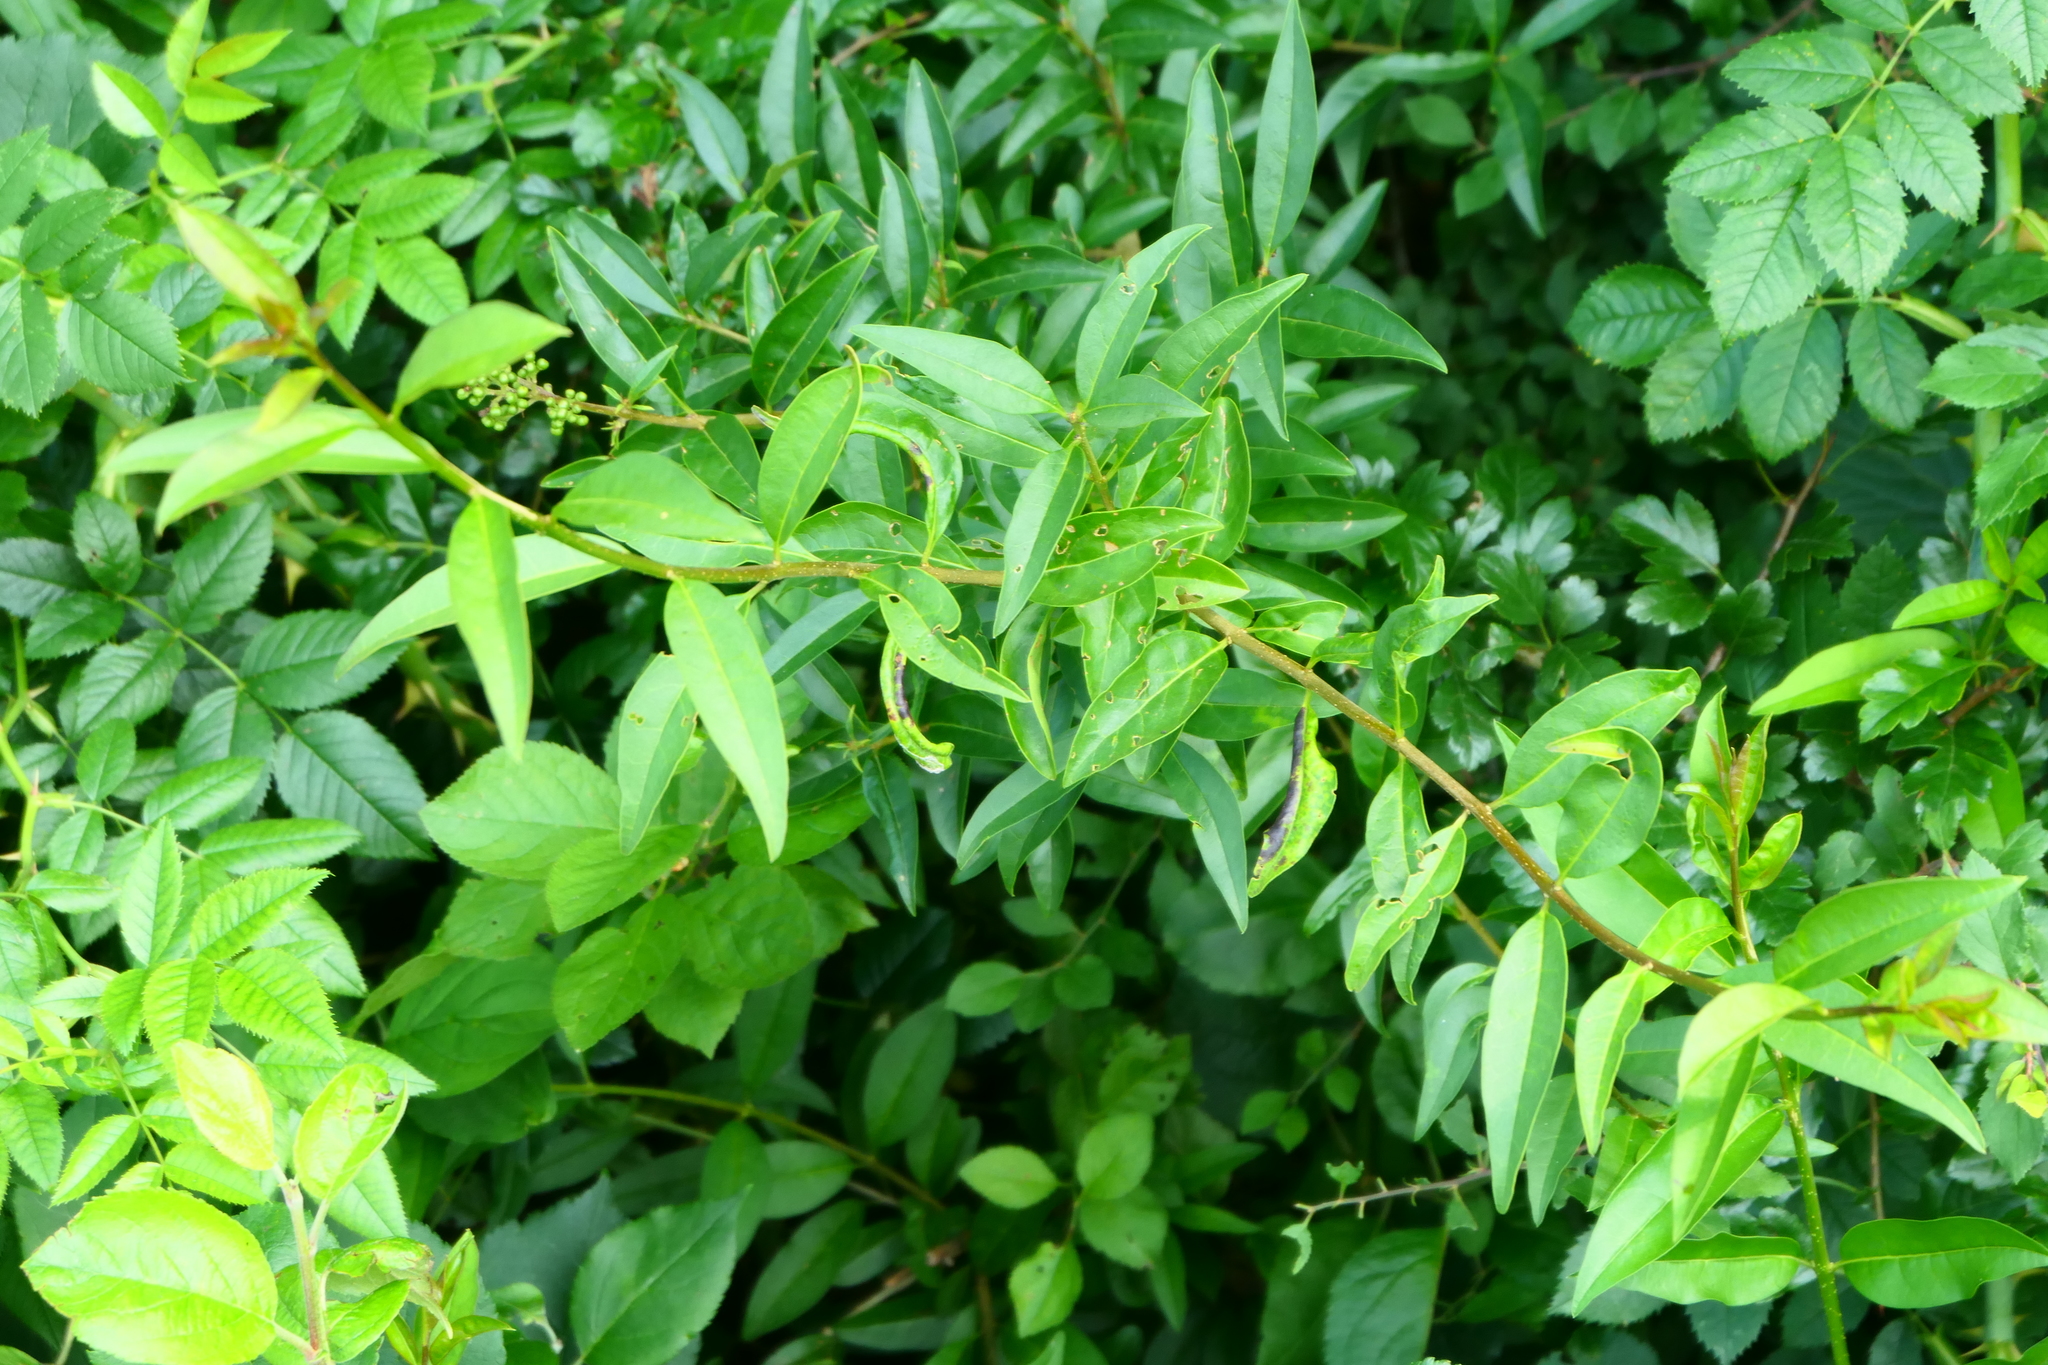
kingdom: Plantae
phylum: Tracheophyta
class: Magnoliopsida
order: Lamiales
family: Oleaceae
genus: Ligustrum
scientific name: Ligustrum vulgare
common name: Wild privet
